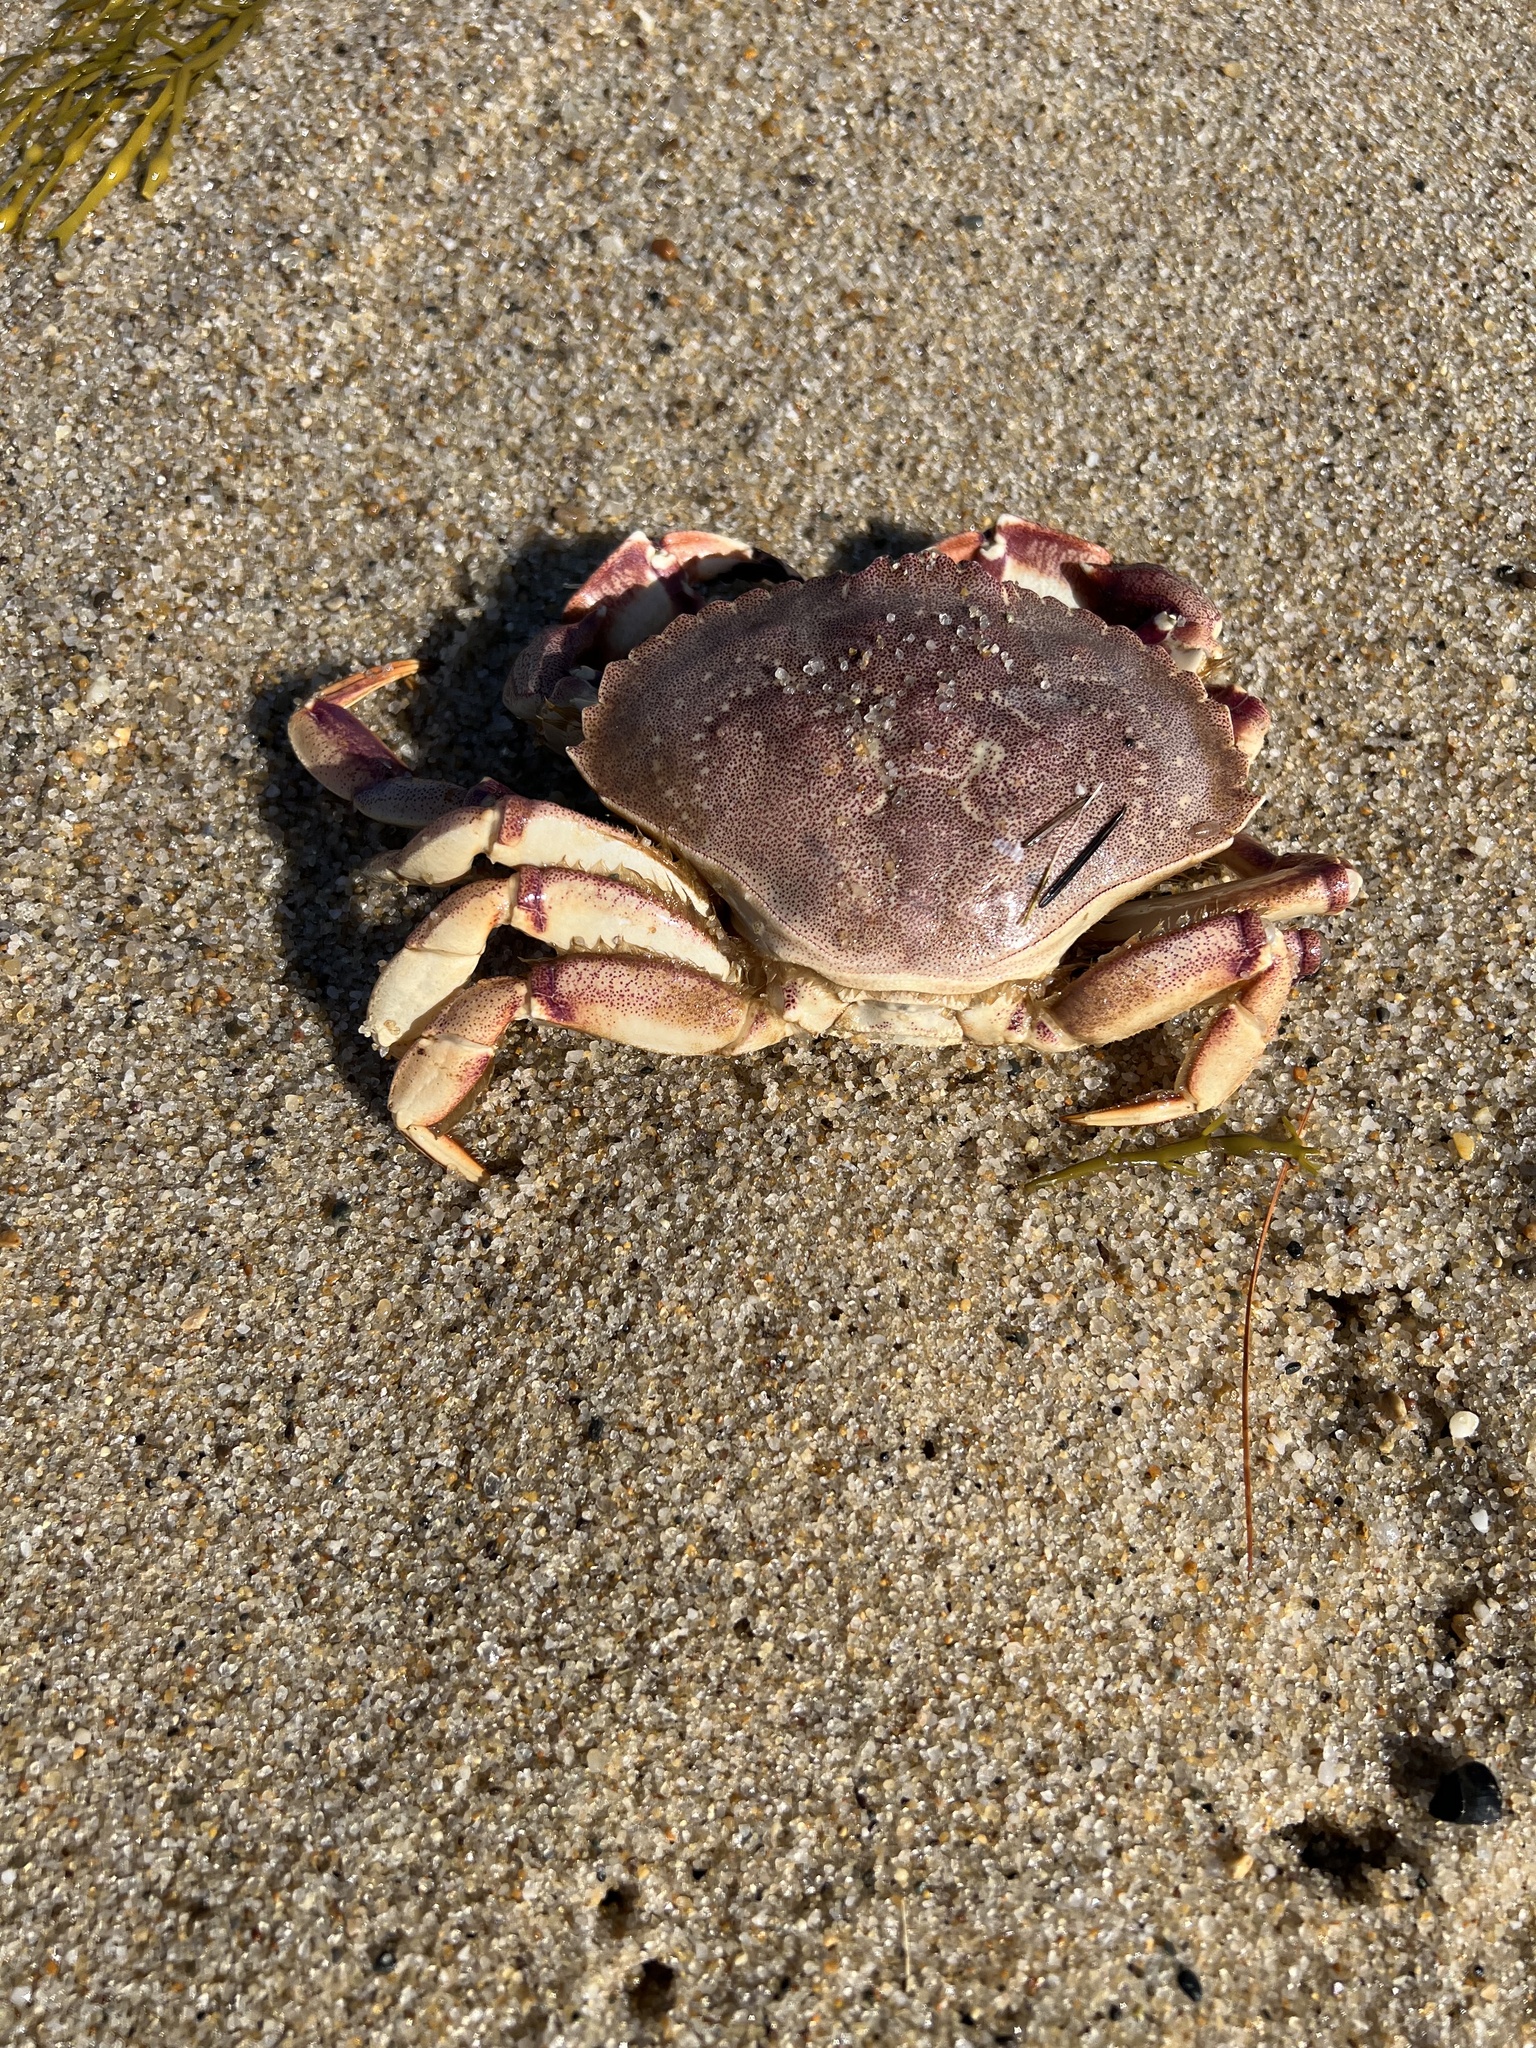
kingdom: Animalia
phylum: Arthropoda
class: Malacostraca
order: Decapoda
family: Cancridae
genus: Cancer
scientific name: Cancer irroratus
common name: Atlantic rock crab
